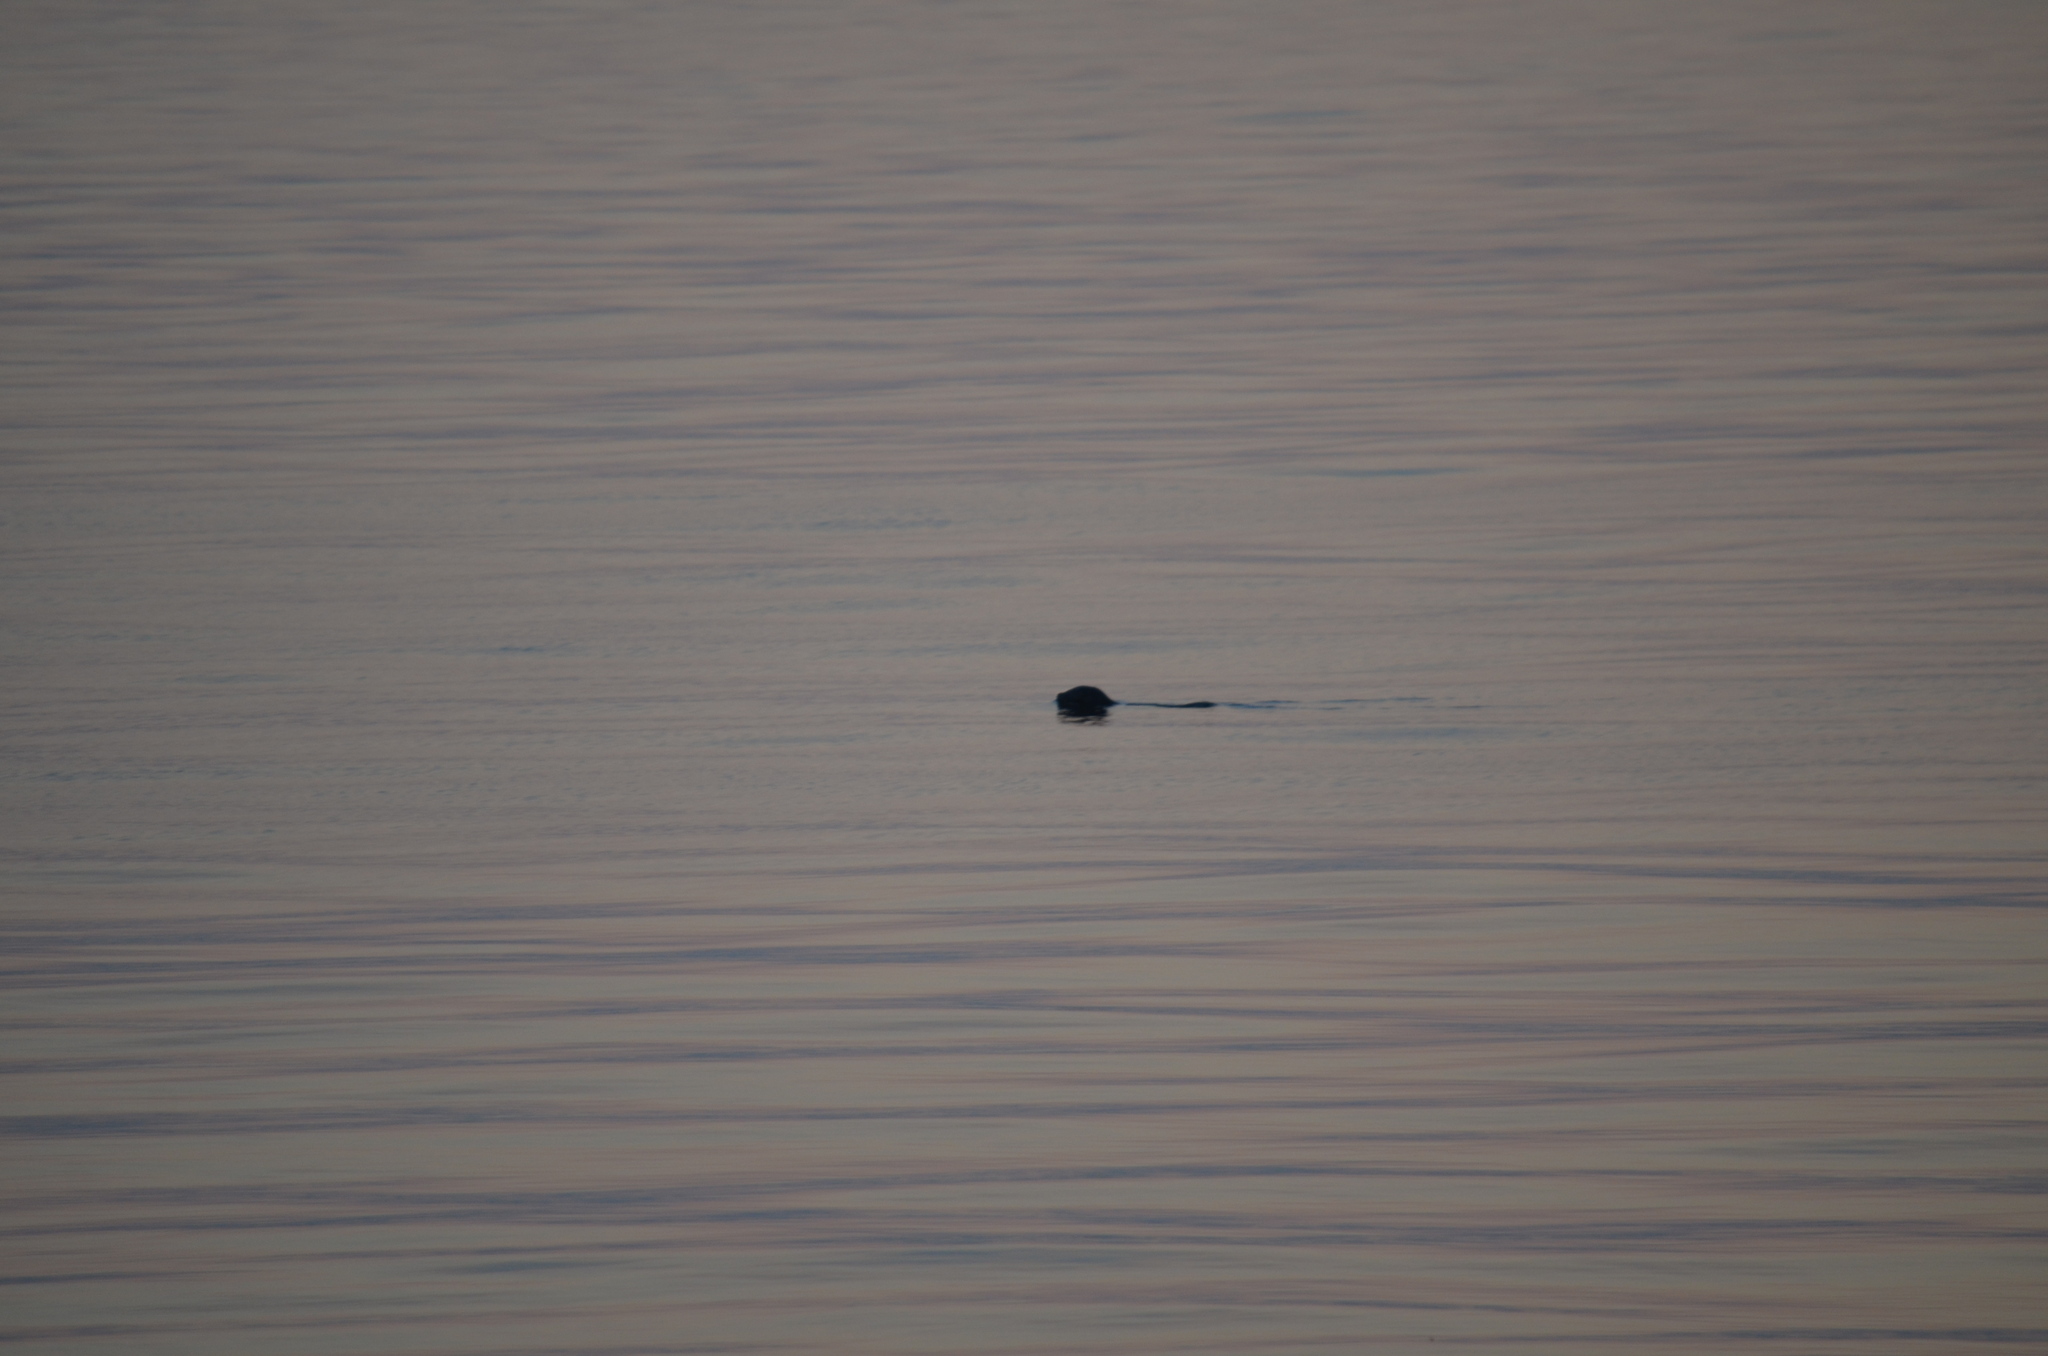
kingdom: Animalia
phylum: Chordata
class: Mammalia
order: Carnivora
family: Phocidae
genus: Phoca
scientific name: Phoca vitulina
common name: Harbor seal
